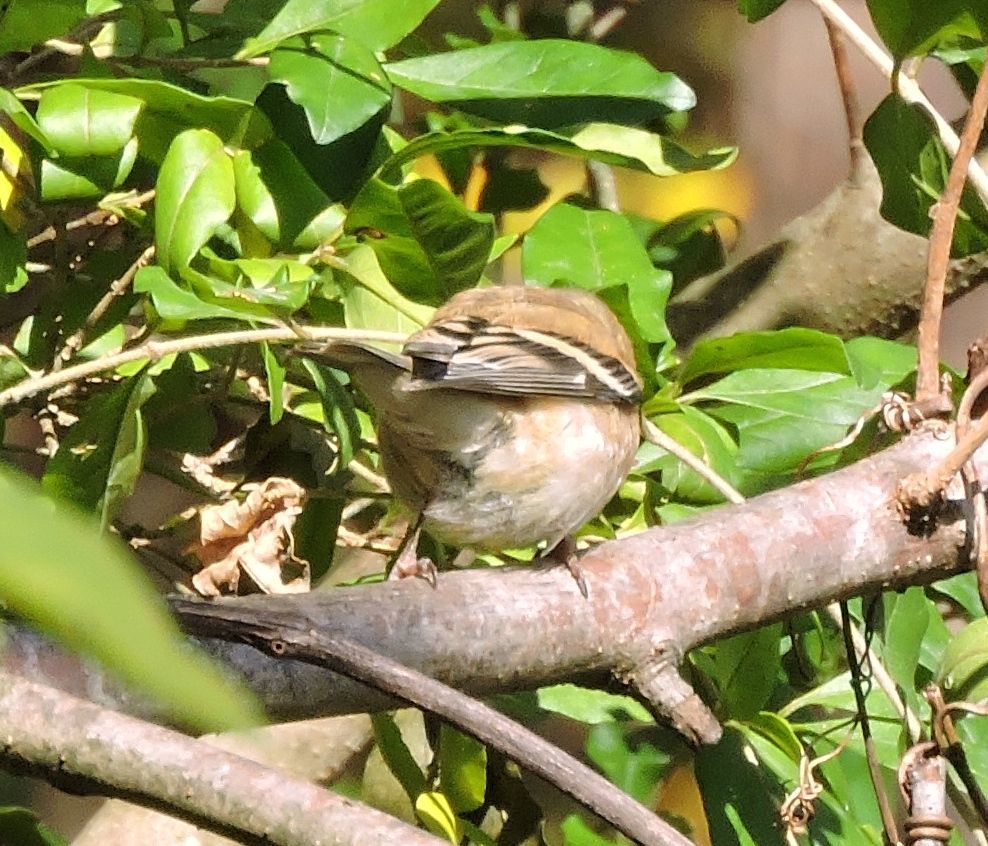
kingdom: Animalia
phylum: Chordata
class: Aves
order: Passeriformes
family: Fringillidae
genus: Spinus
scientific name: Spinus tristis
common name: American goldfinch
